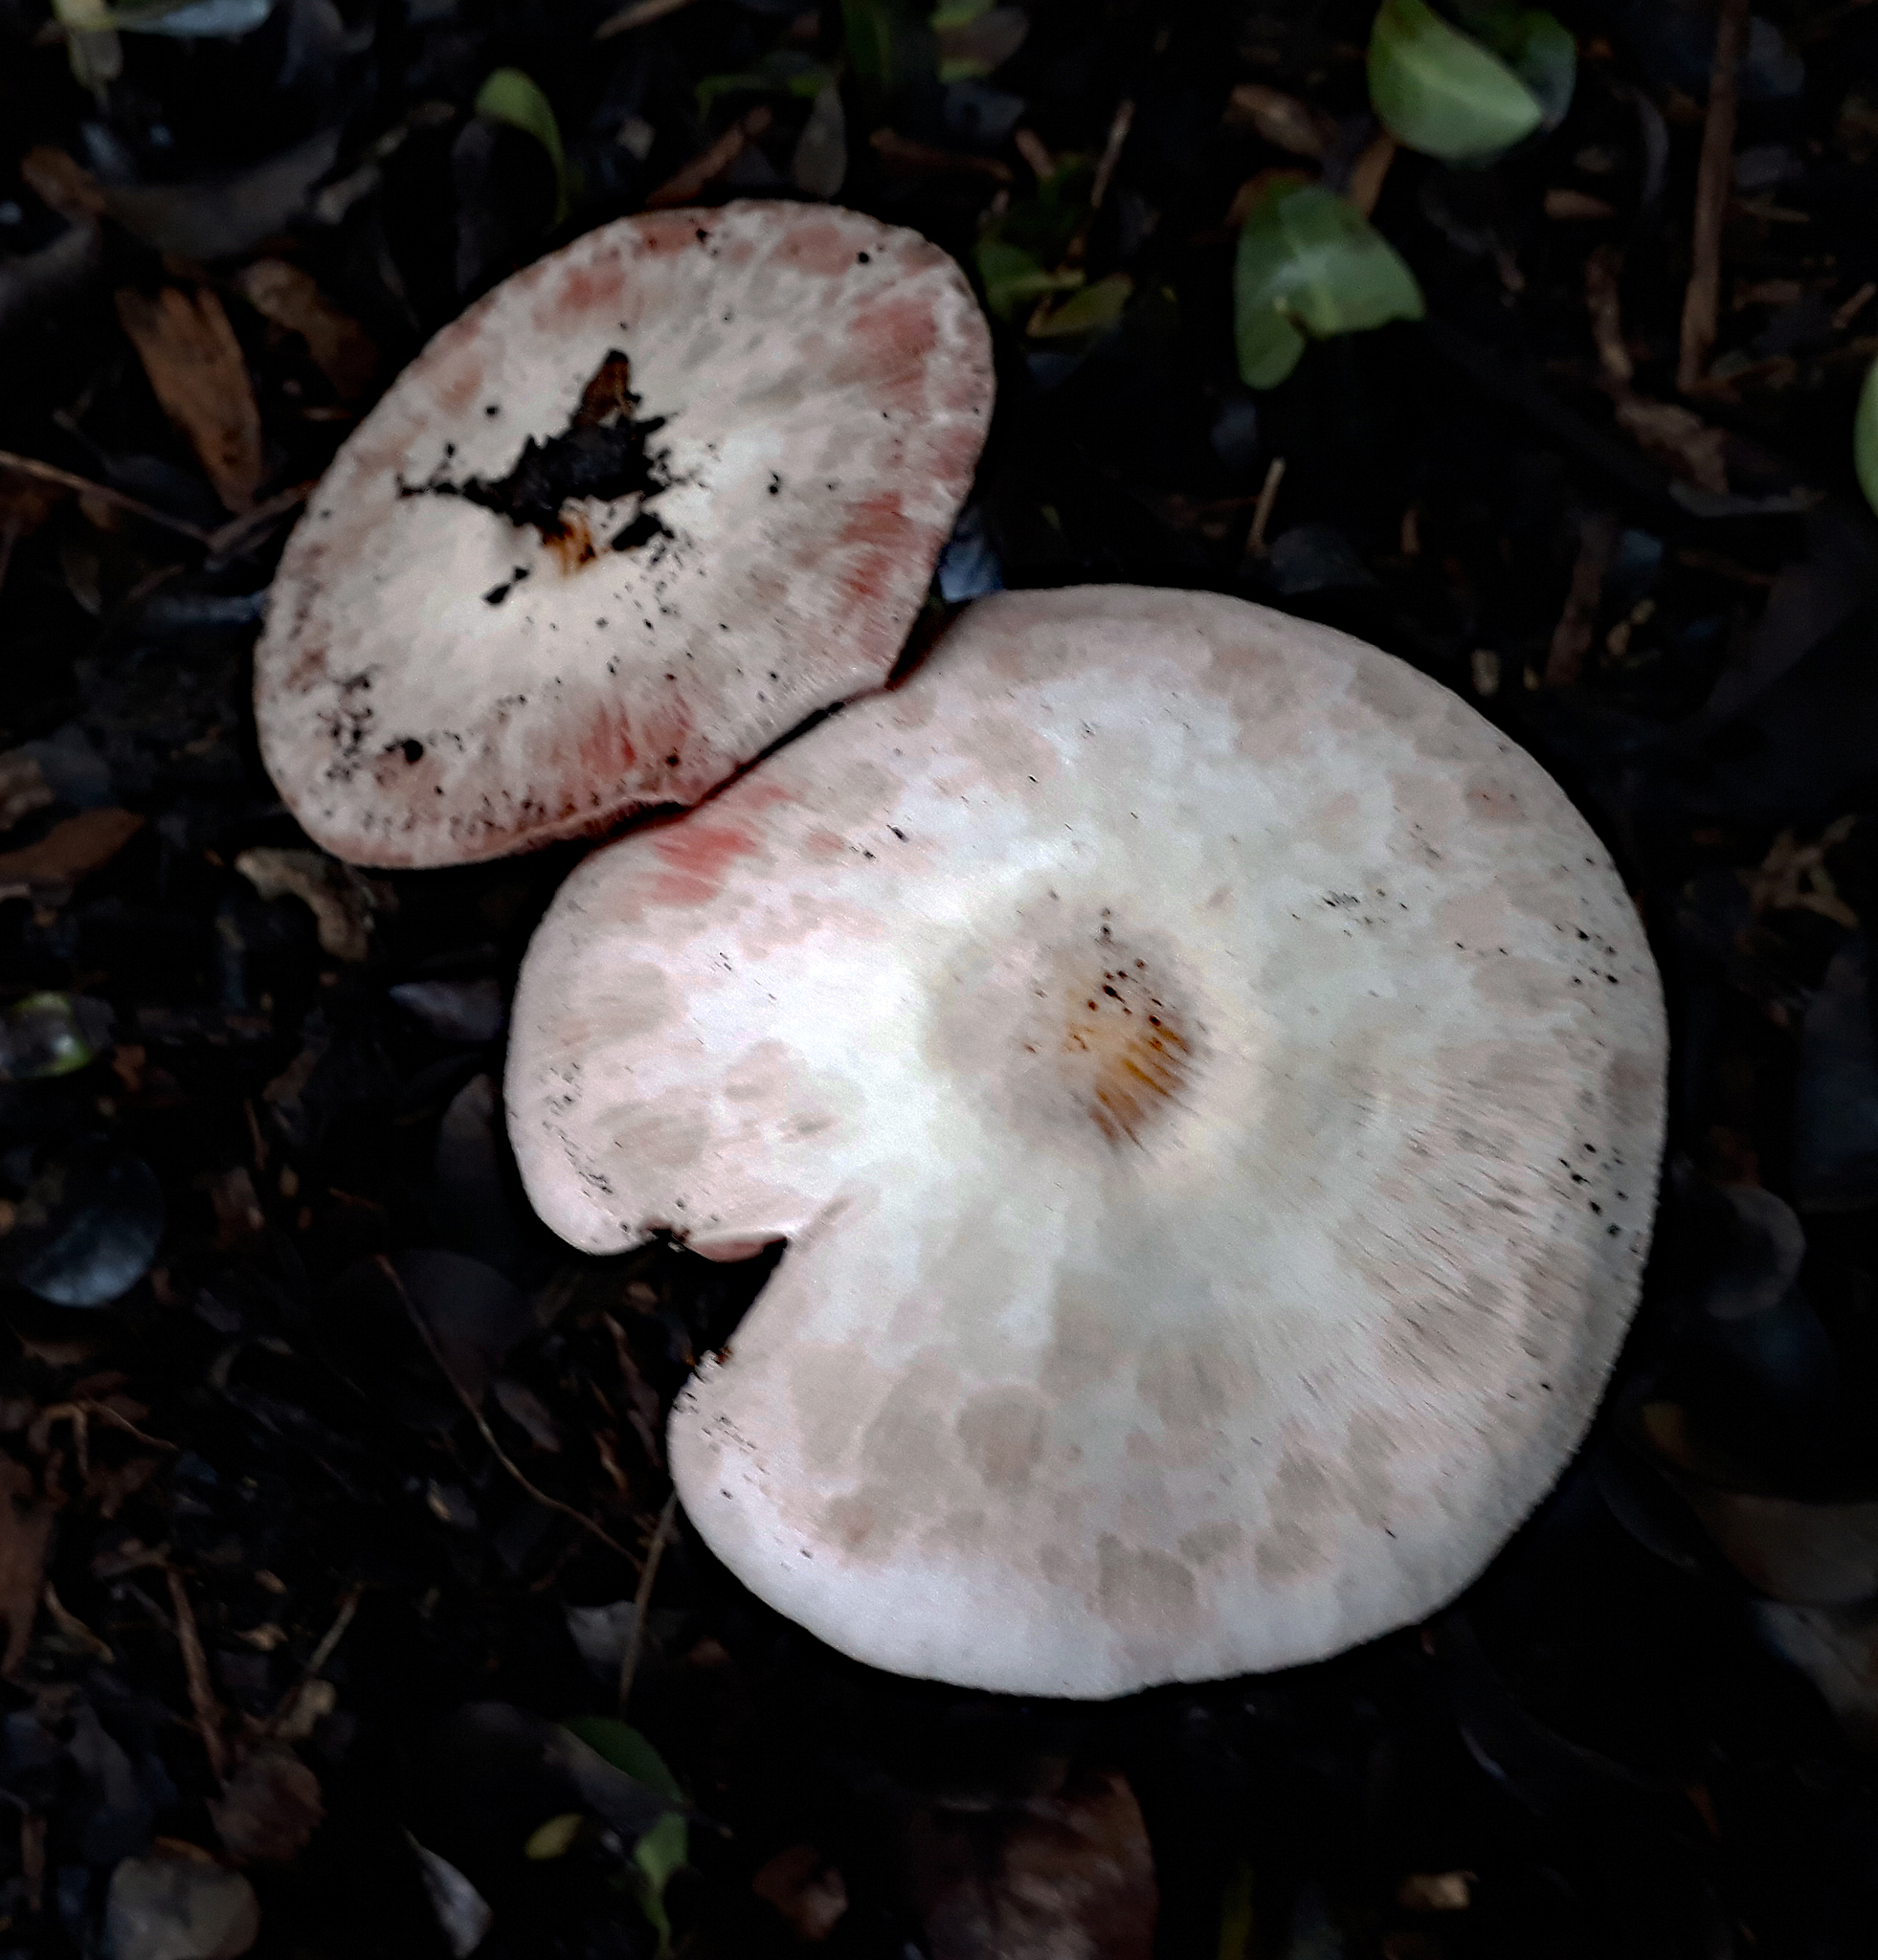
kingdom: Fungi
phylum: Basidiomycota
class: Agaricomycetes
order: Agaricales
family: Agaricaceae
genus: Agaricus
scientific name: Agaricus
